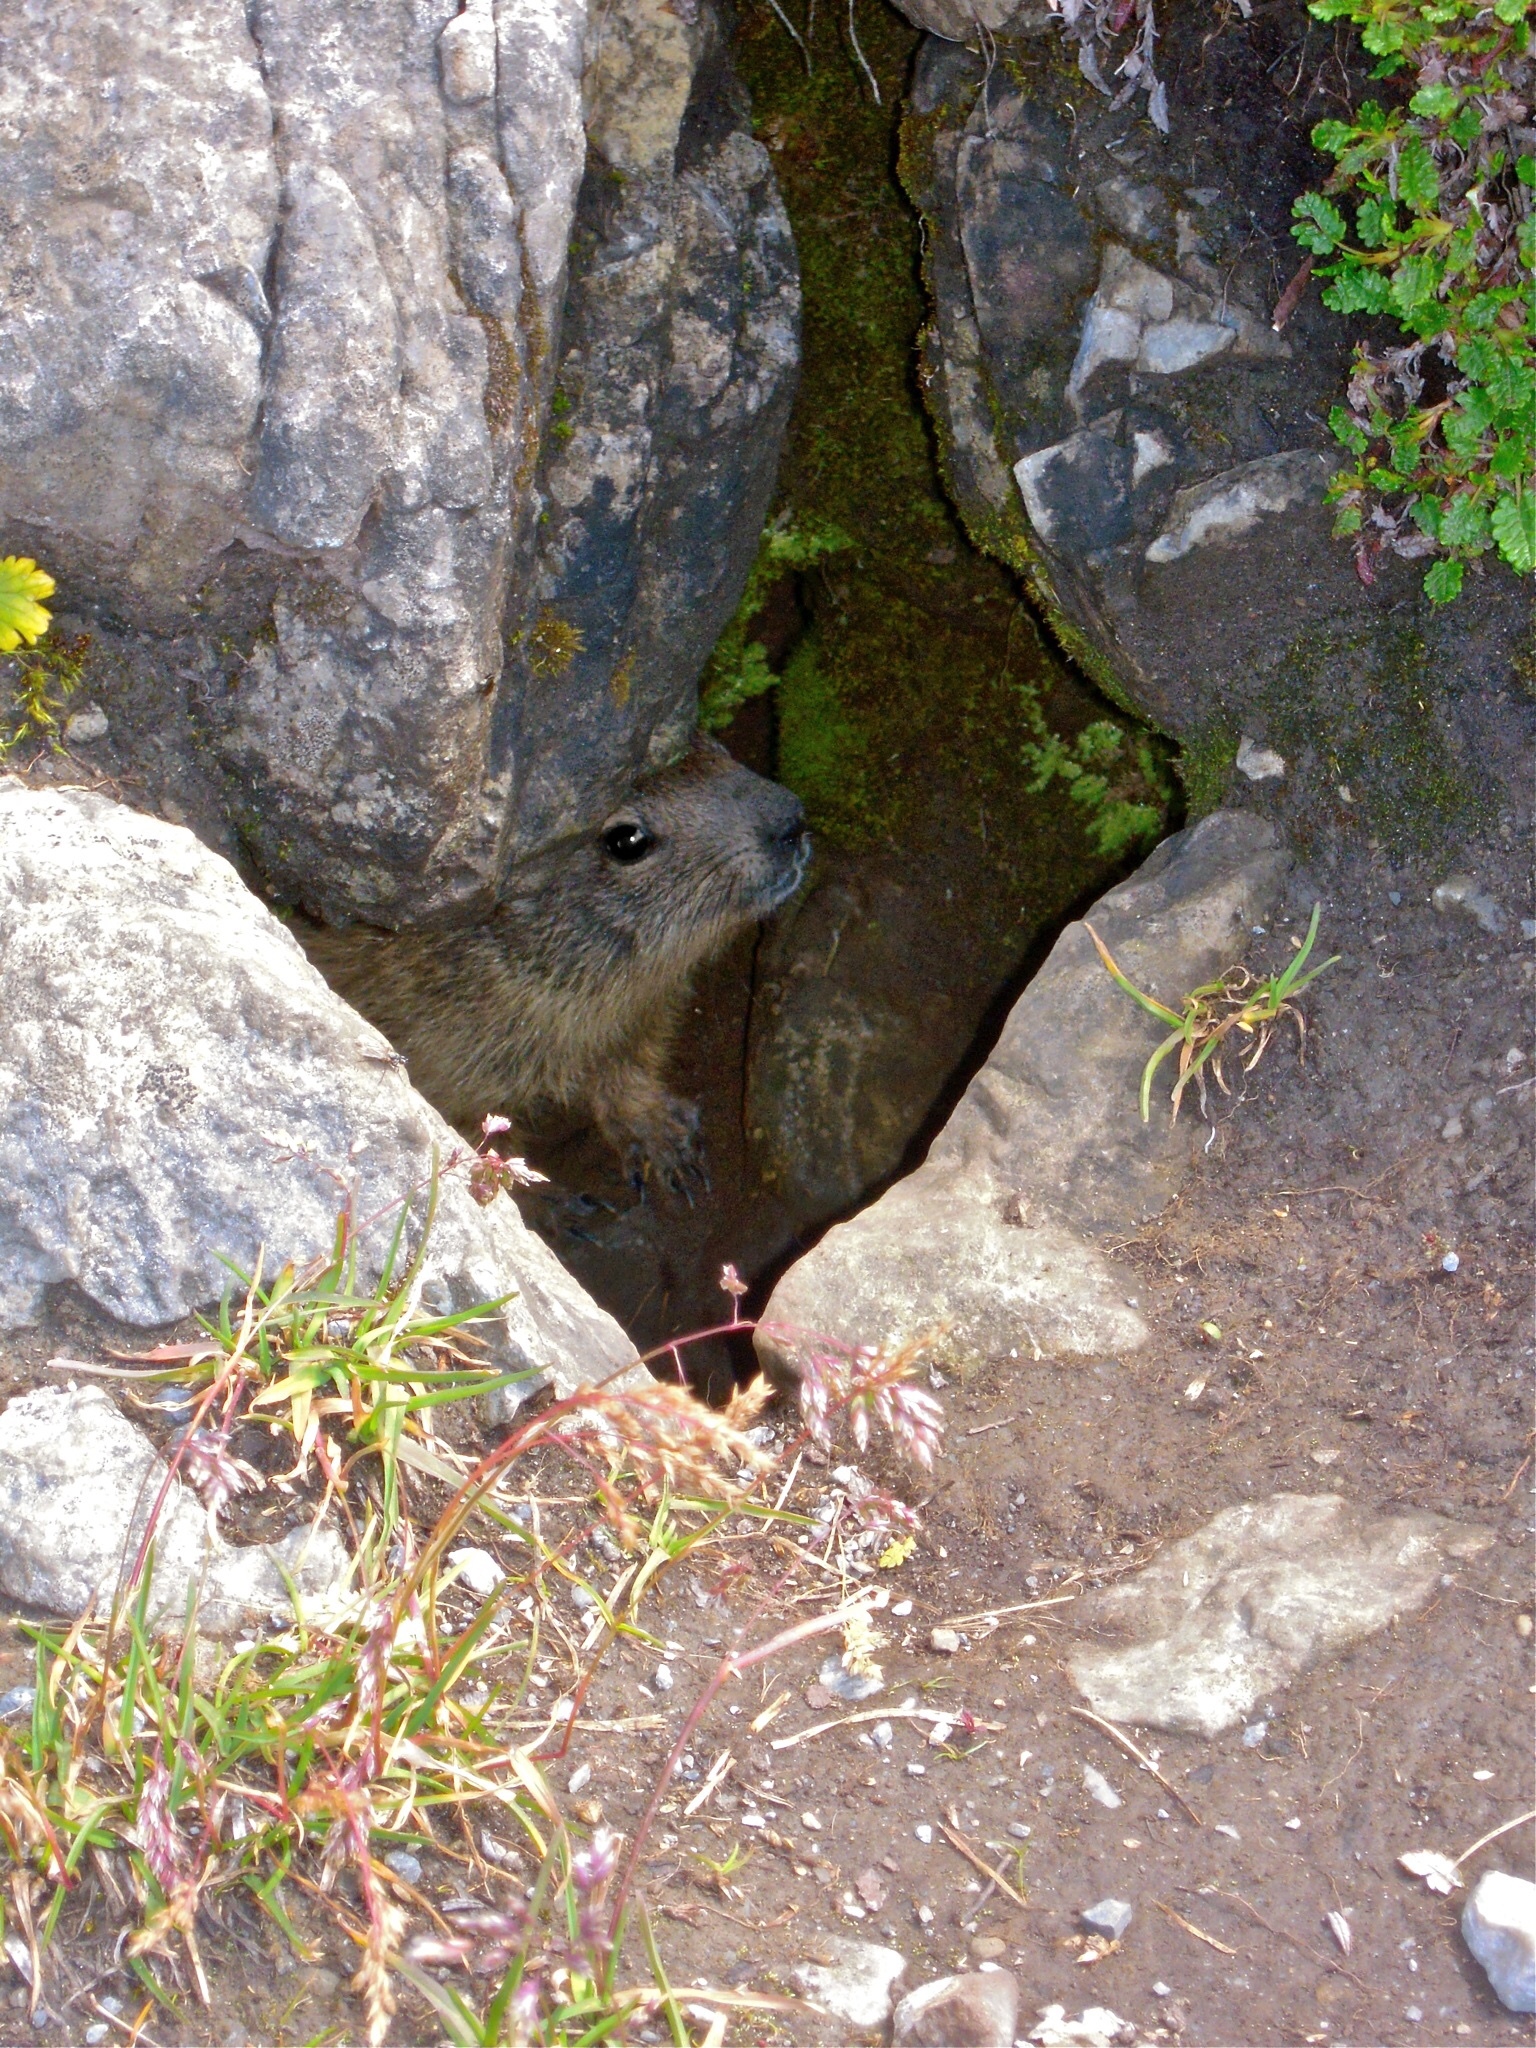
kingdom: Animalia
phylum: Chordata
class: Mammalia
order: Rodentia
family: Sciuridae
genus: Marmota
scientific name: Marmota marmota
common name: Alpine marmot
